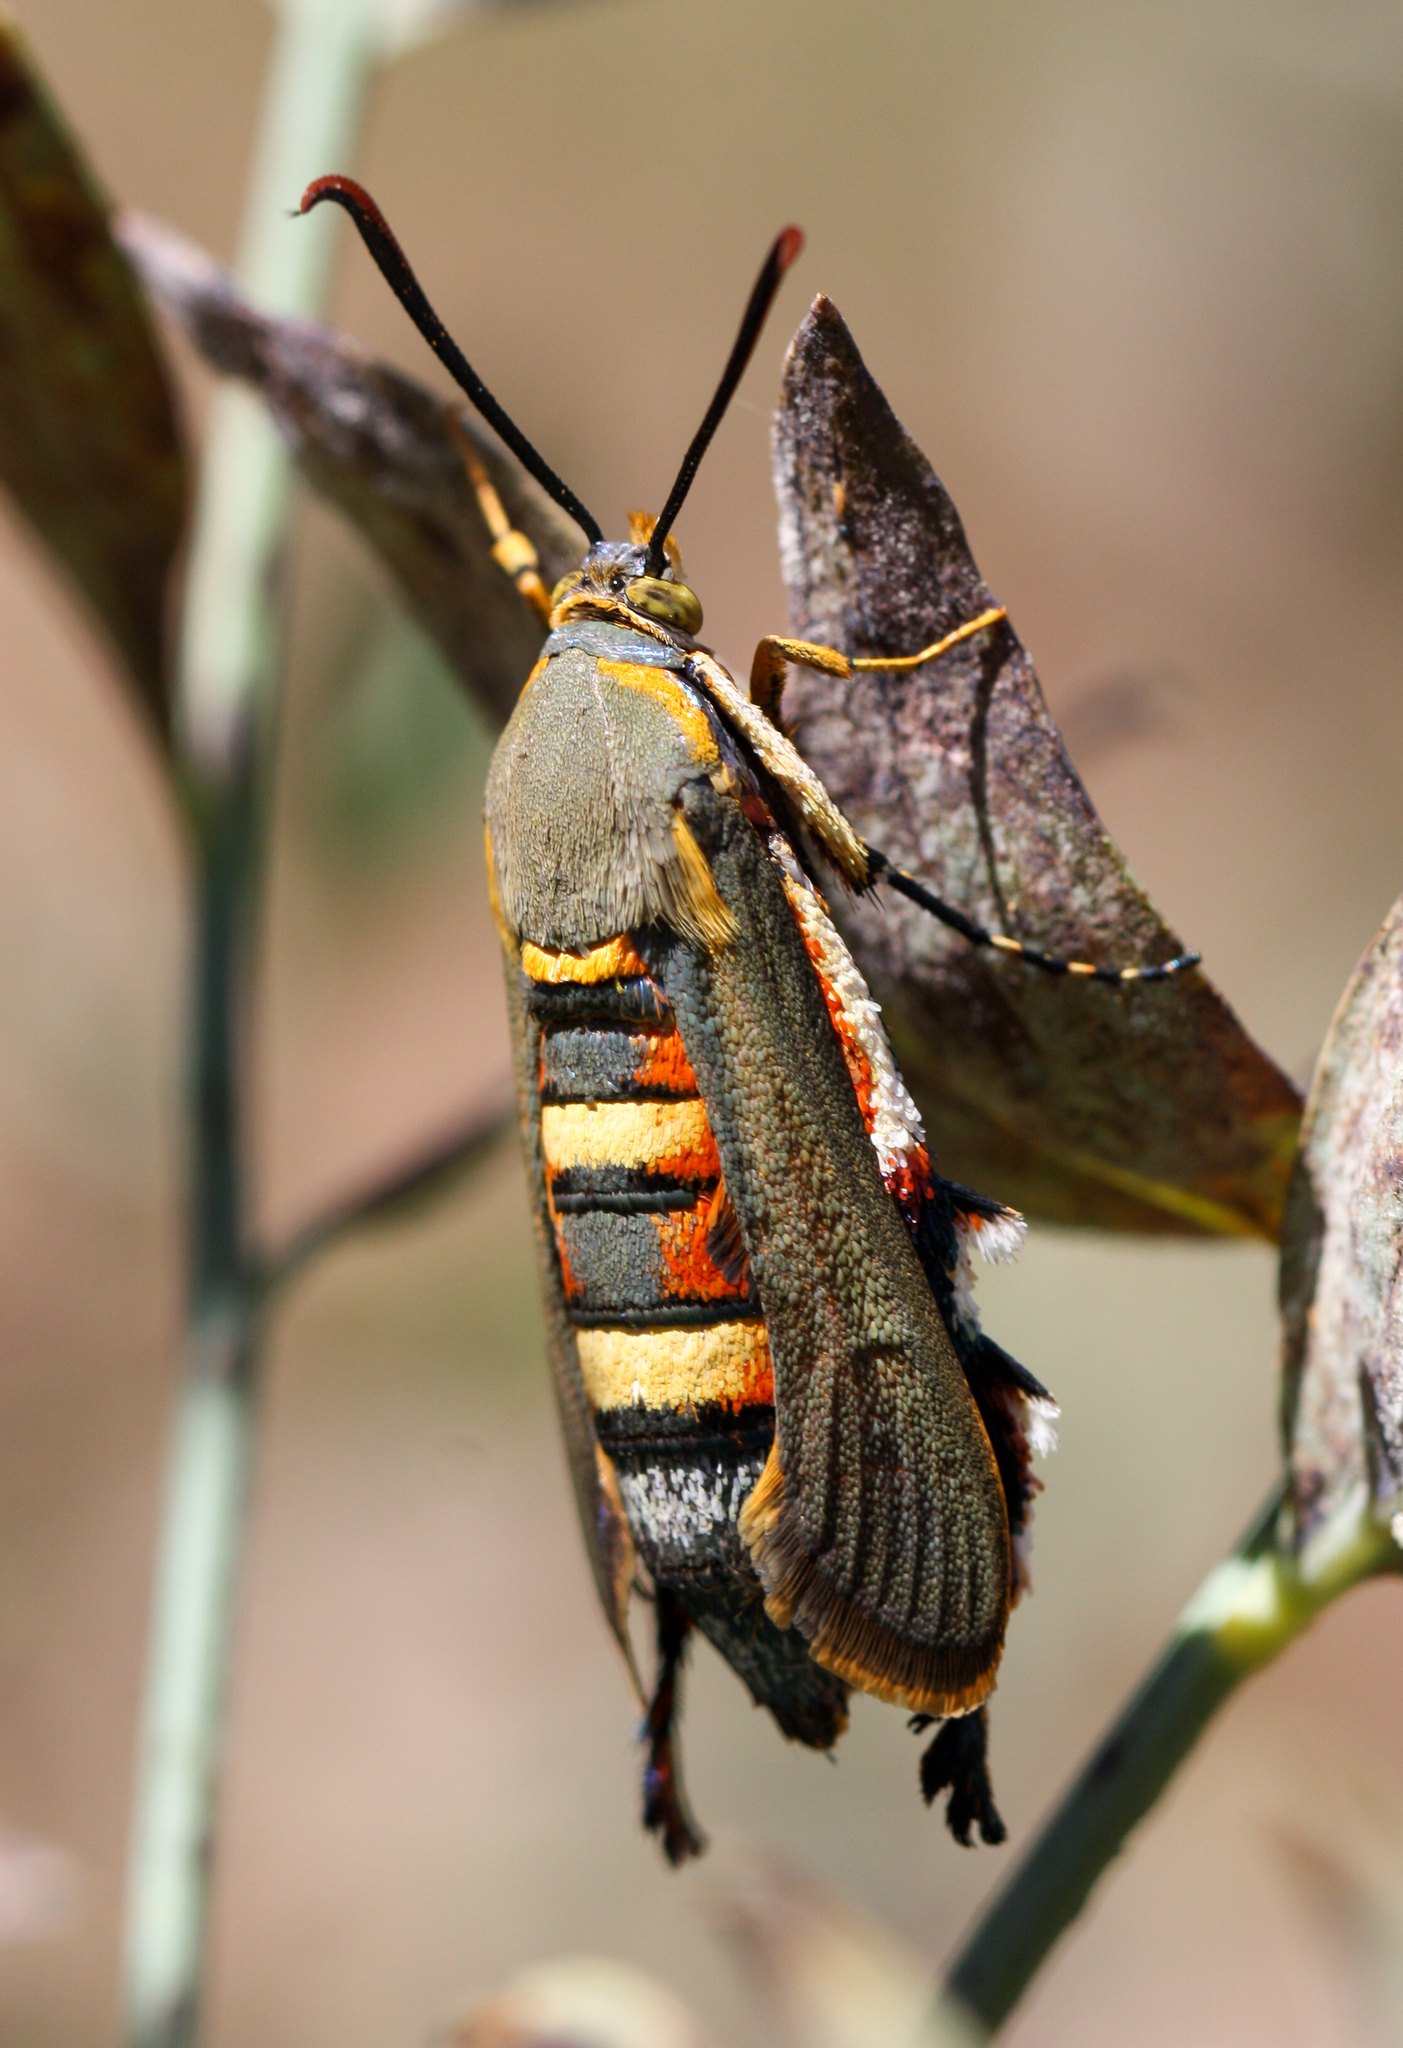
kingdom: Animalia
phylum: Arthropoda
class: Insecta
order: Lepidoptera
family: Sesiidae
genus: Eichlinia
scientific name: Eichlinia gloriosa
